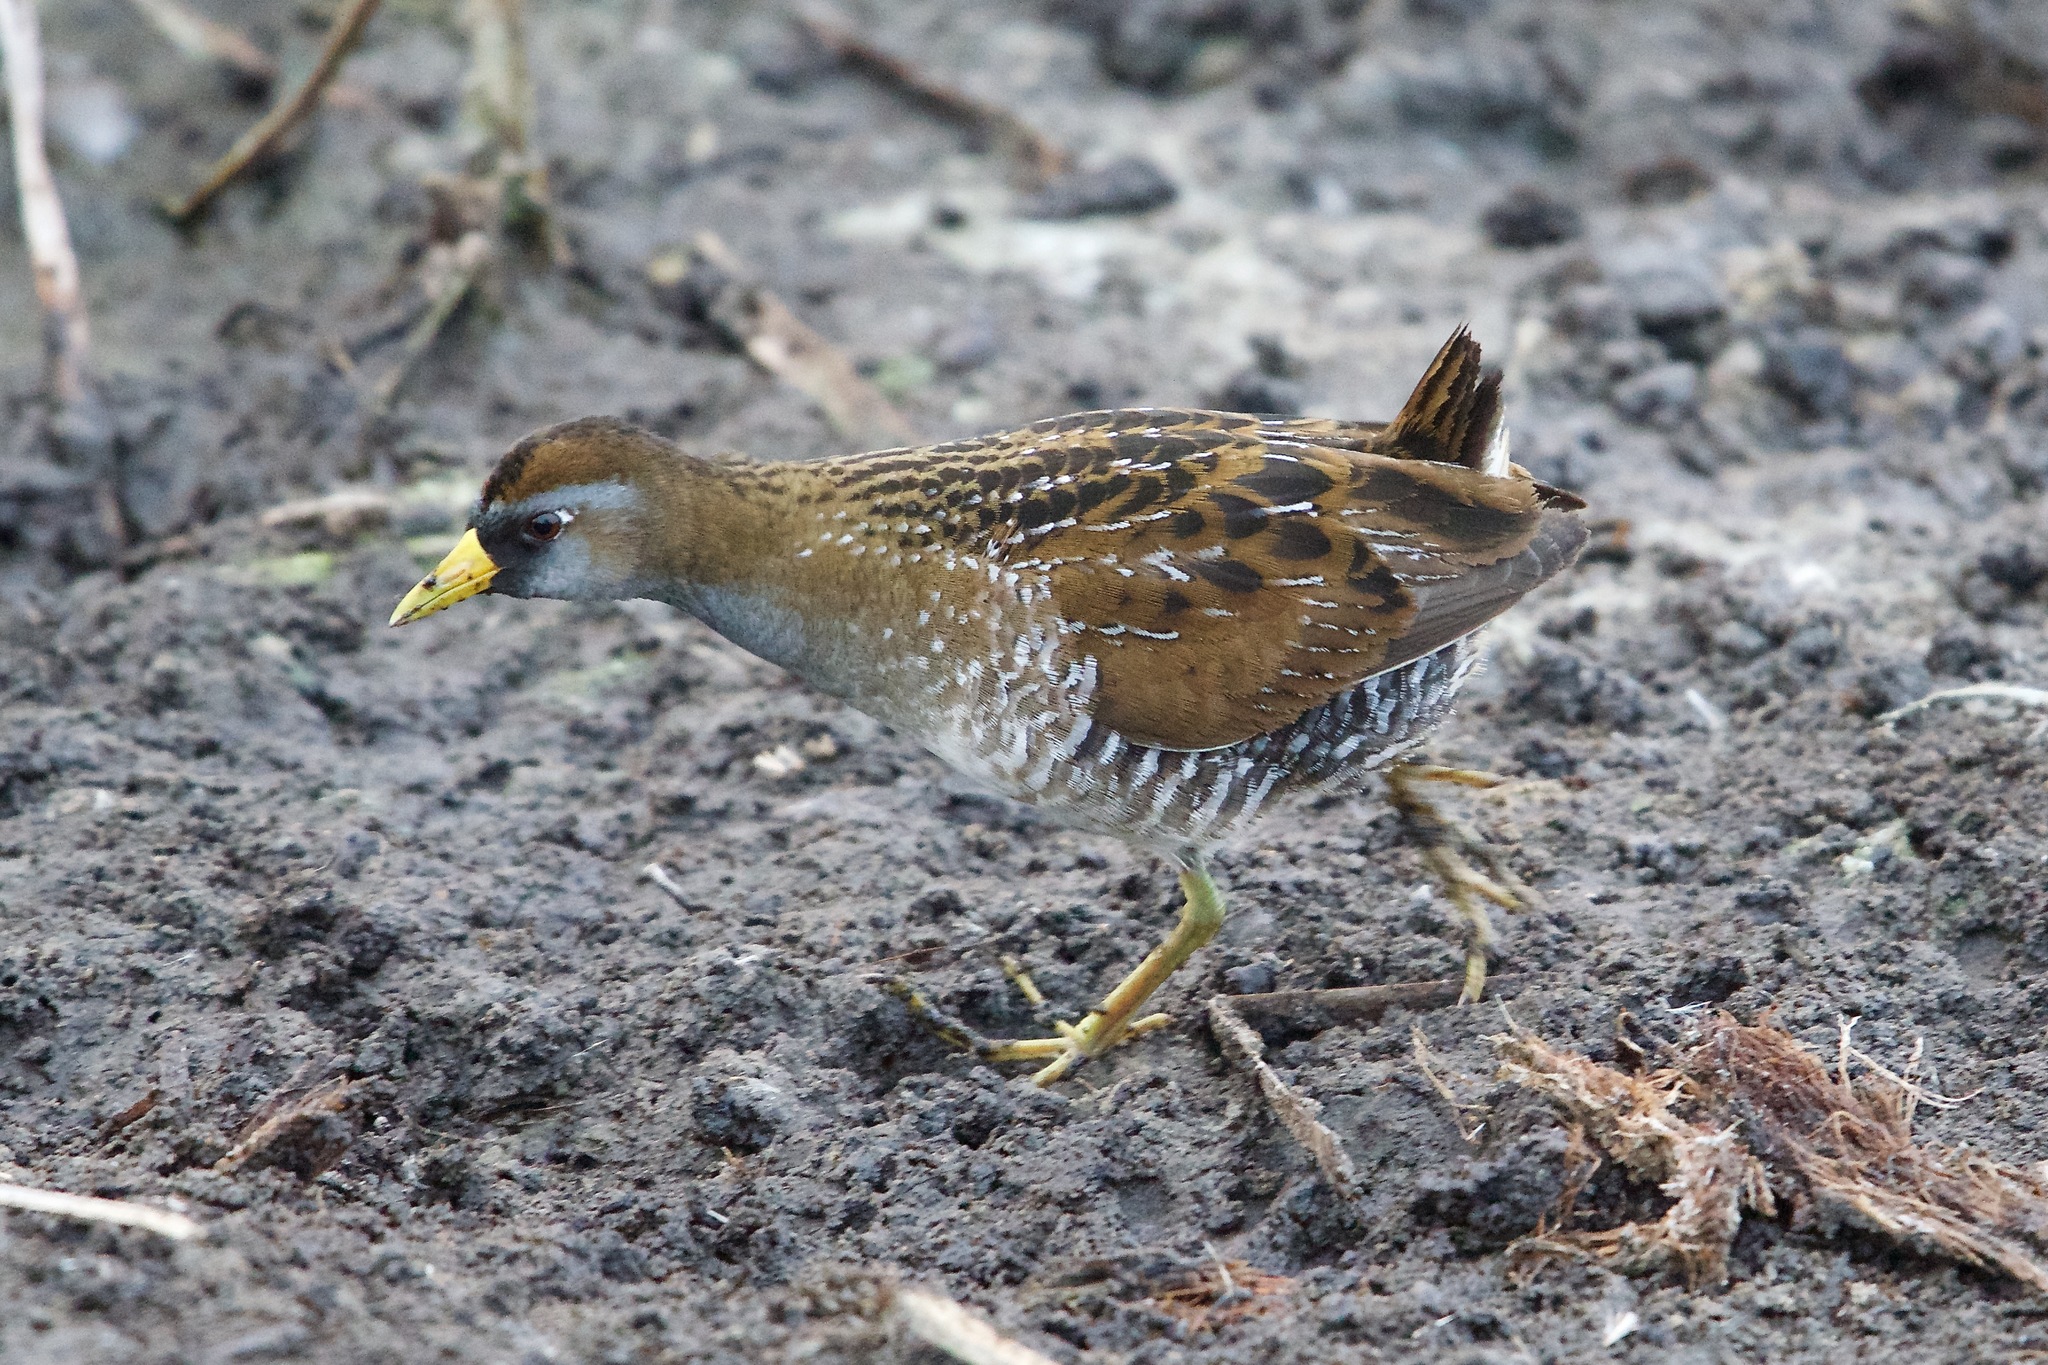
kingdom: Animalia
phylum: Chordata
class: Aves
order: Gruiformes
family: Rallidae
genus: Porzana
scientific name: Porzana carolina
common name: Sora
